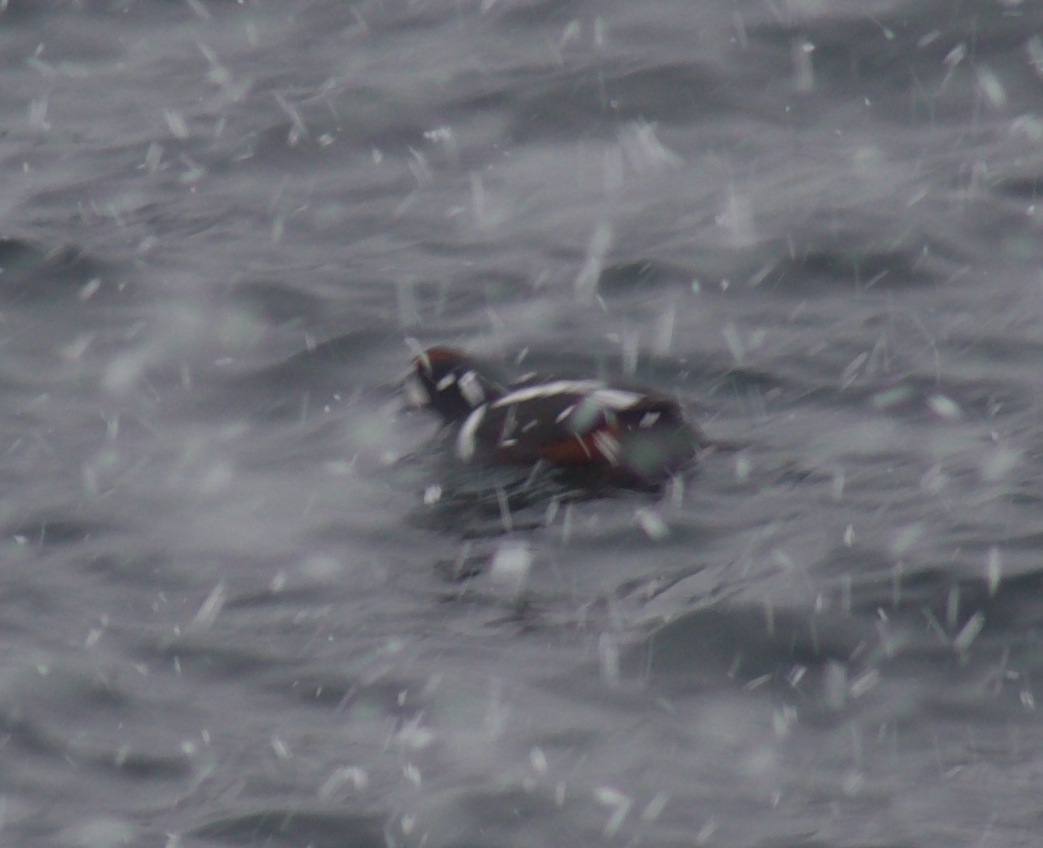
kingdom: Animalia
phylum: Chordata
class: Aves
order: Anseriformes
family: Anatidae
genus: Histrionicus
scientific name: Histrionicus histrionicus
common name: Harlequin duck
